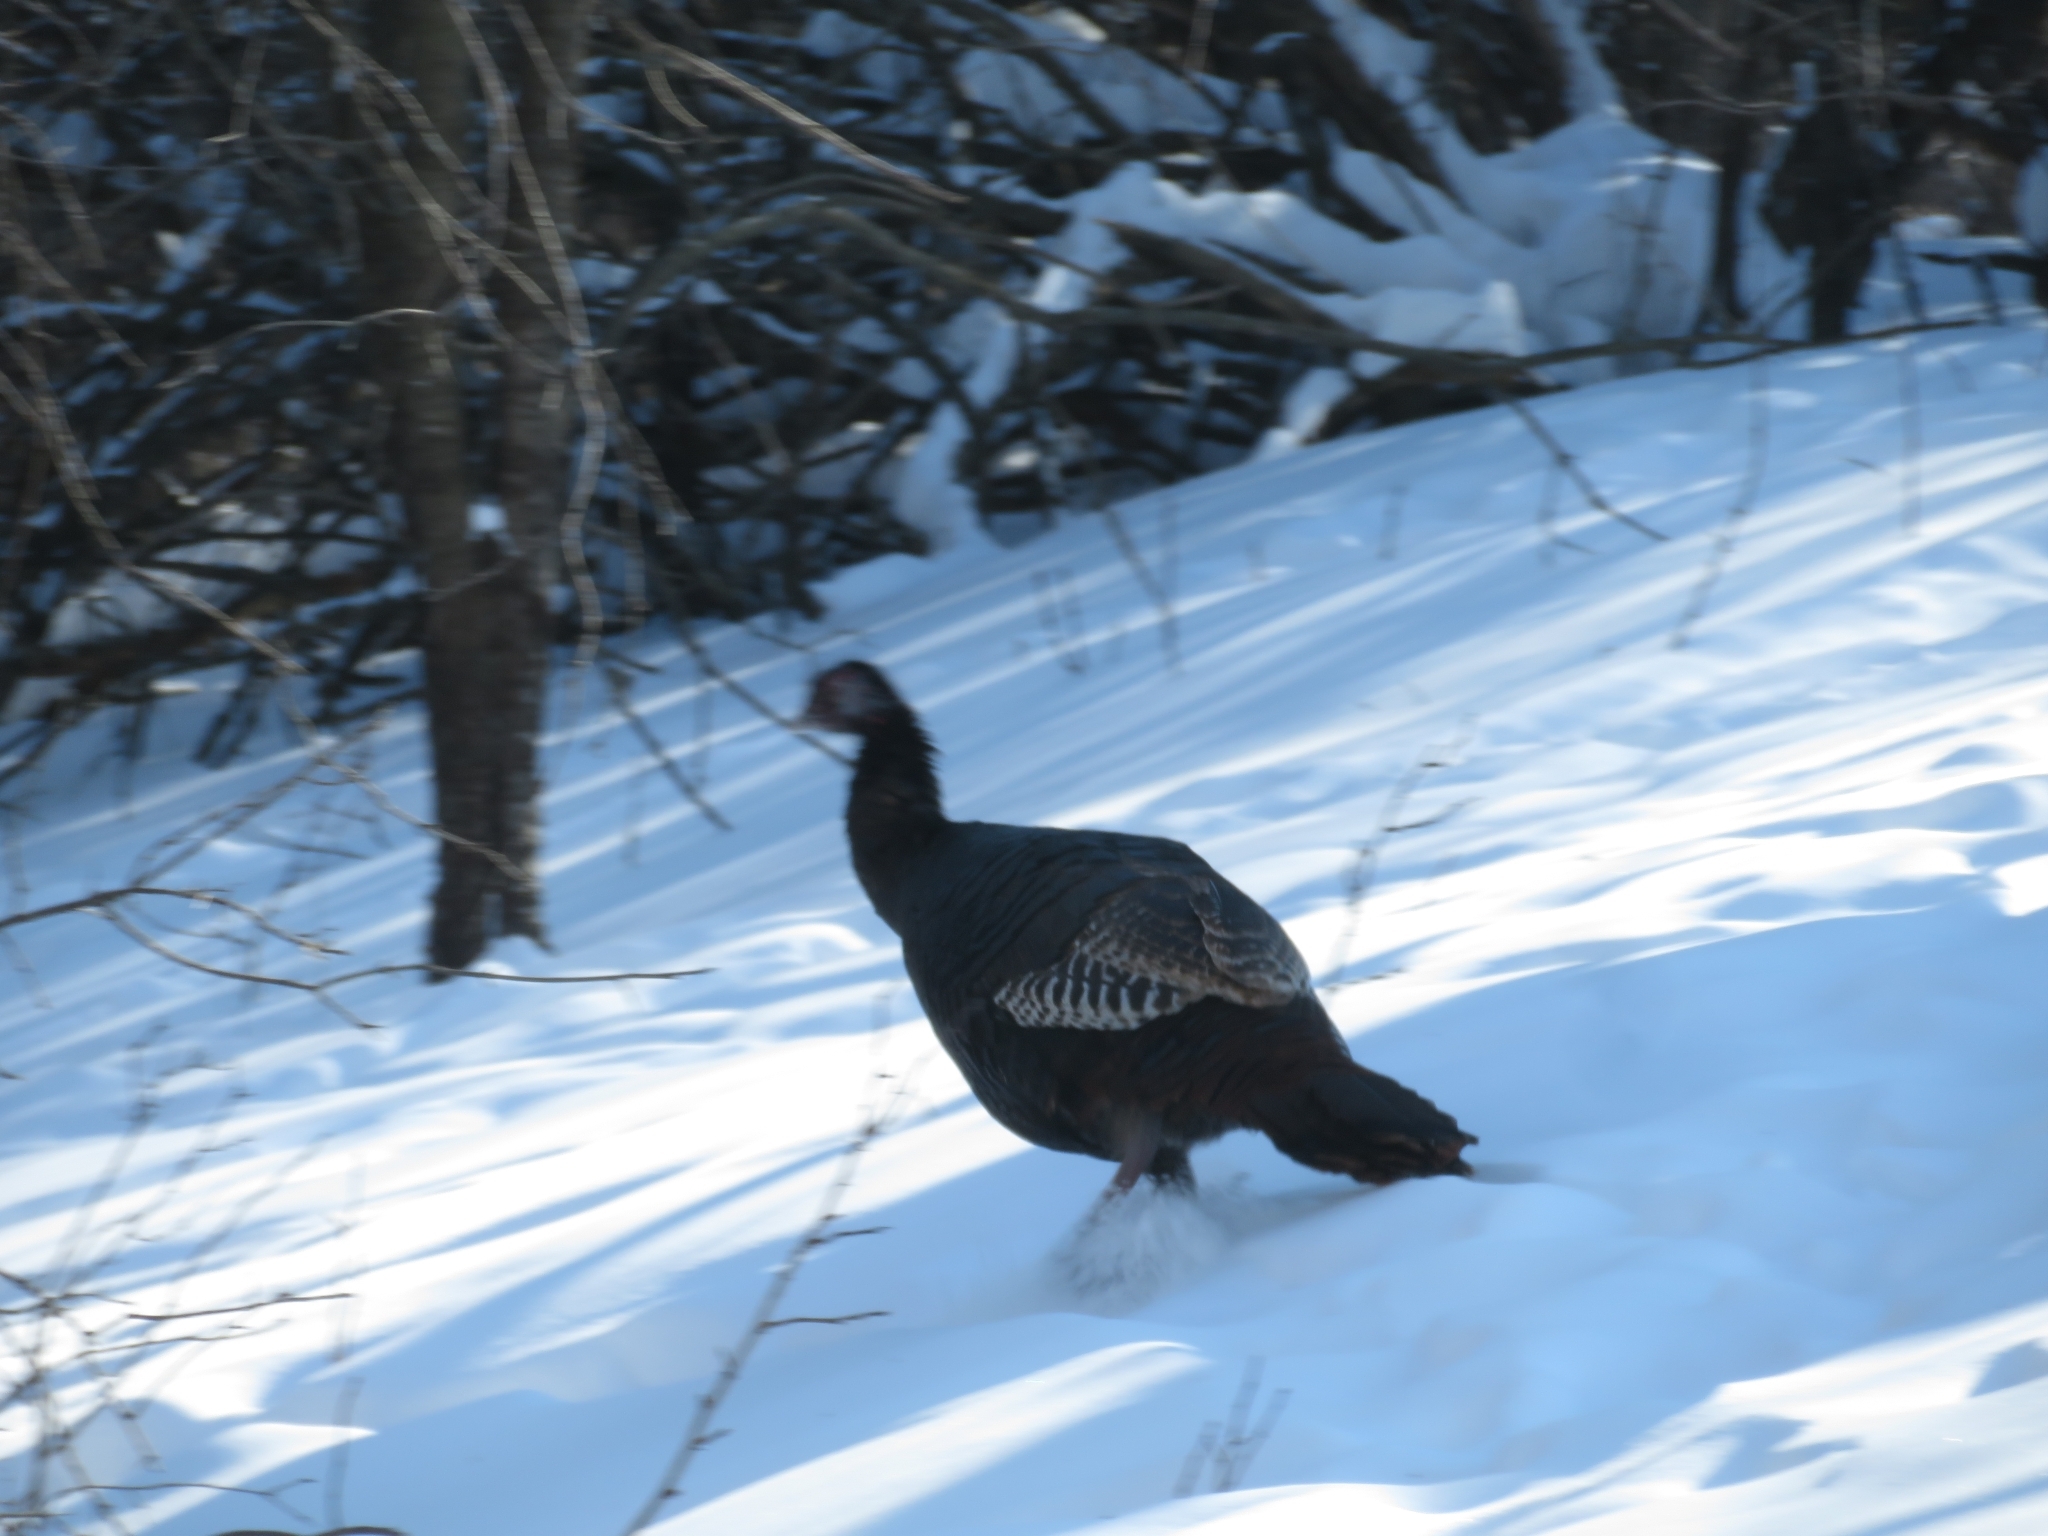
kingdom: Animalia
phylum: Chordata
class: Aves
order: Galliformes
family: Phasianidae
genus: Meleagris
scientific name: Meleagris gallopavo
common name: Wild turkey
